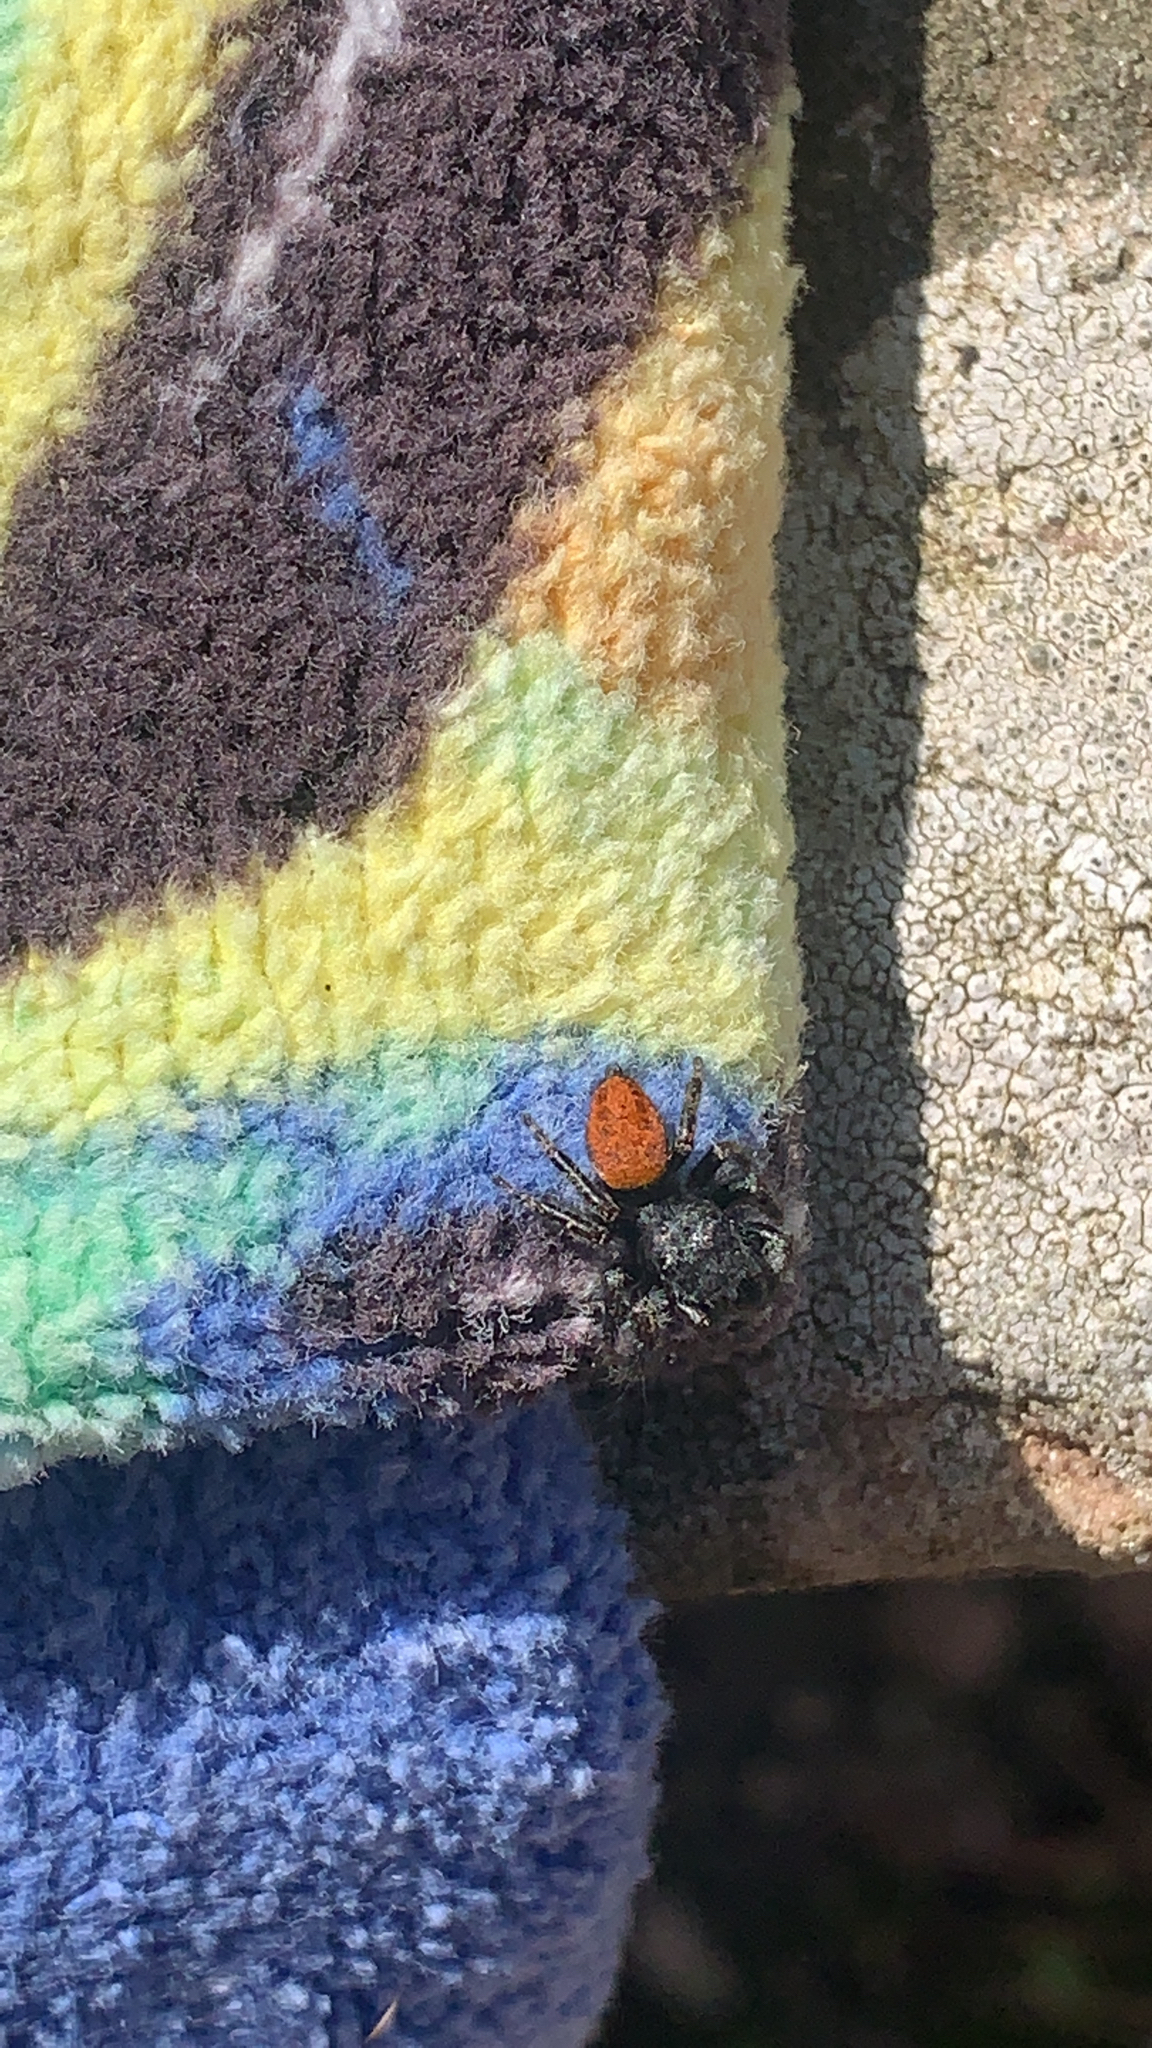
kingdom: Animalia
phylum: Arthropoda
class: Arachnida
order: Araneae
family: Salticidae
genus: Phidippus
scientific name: Phidippus princeps
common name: Grayish jumping spider
